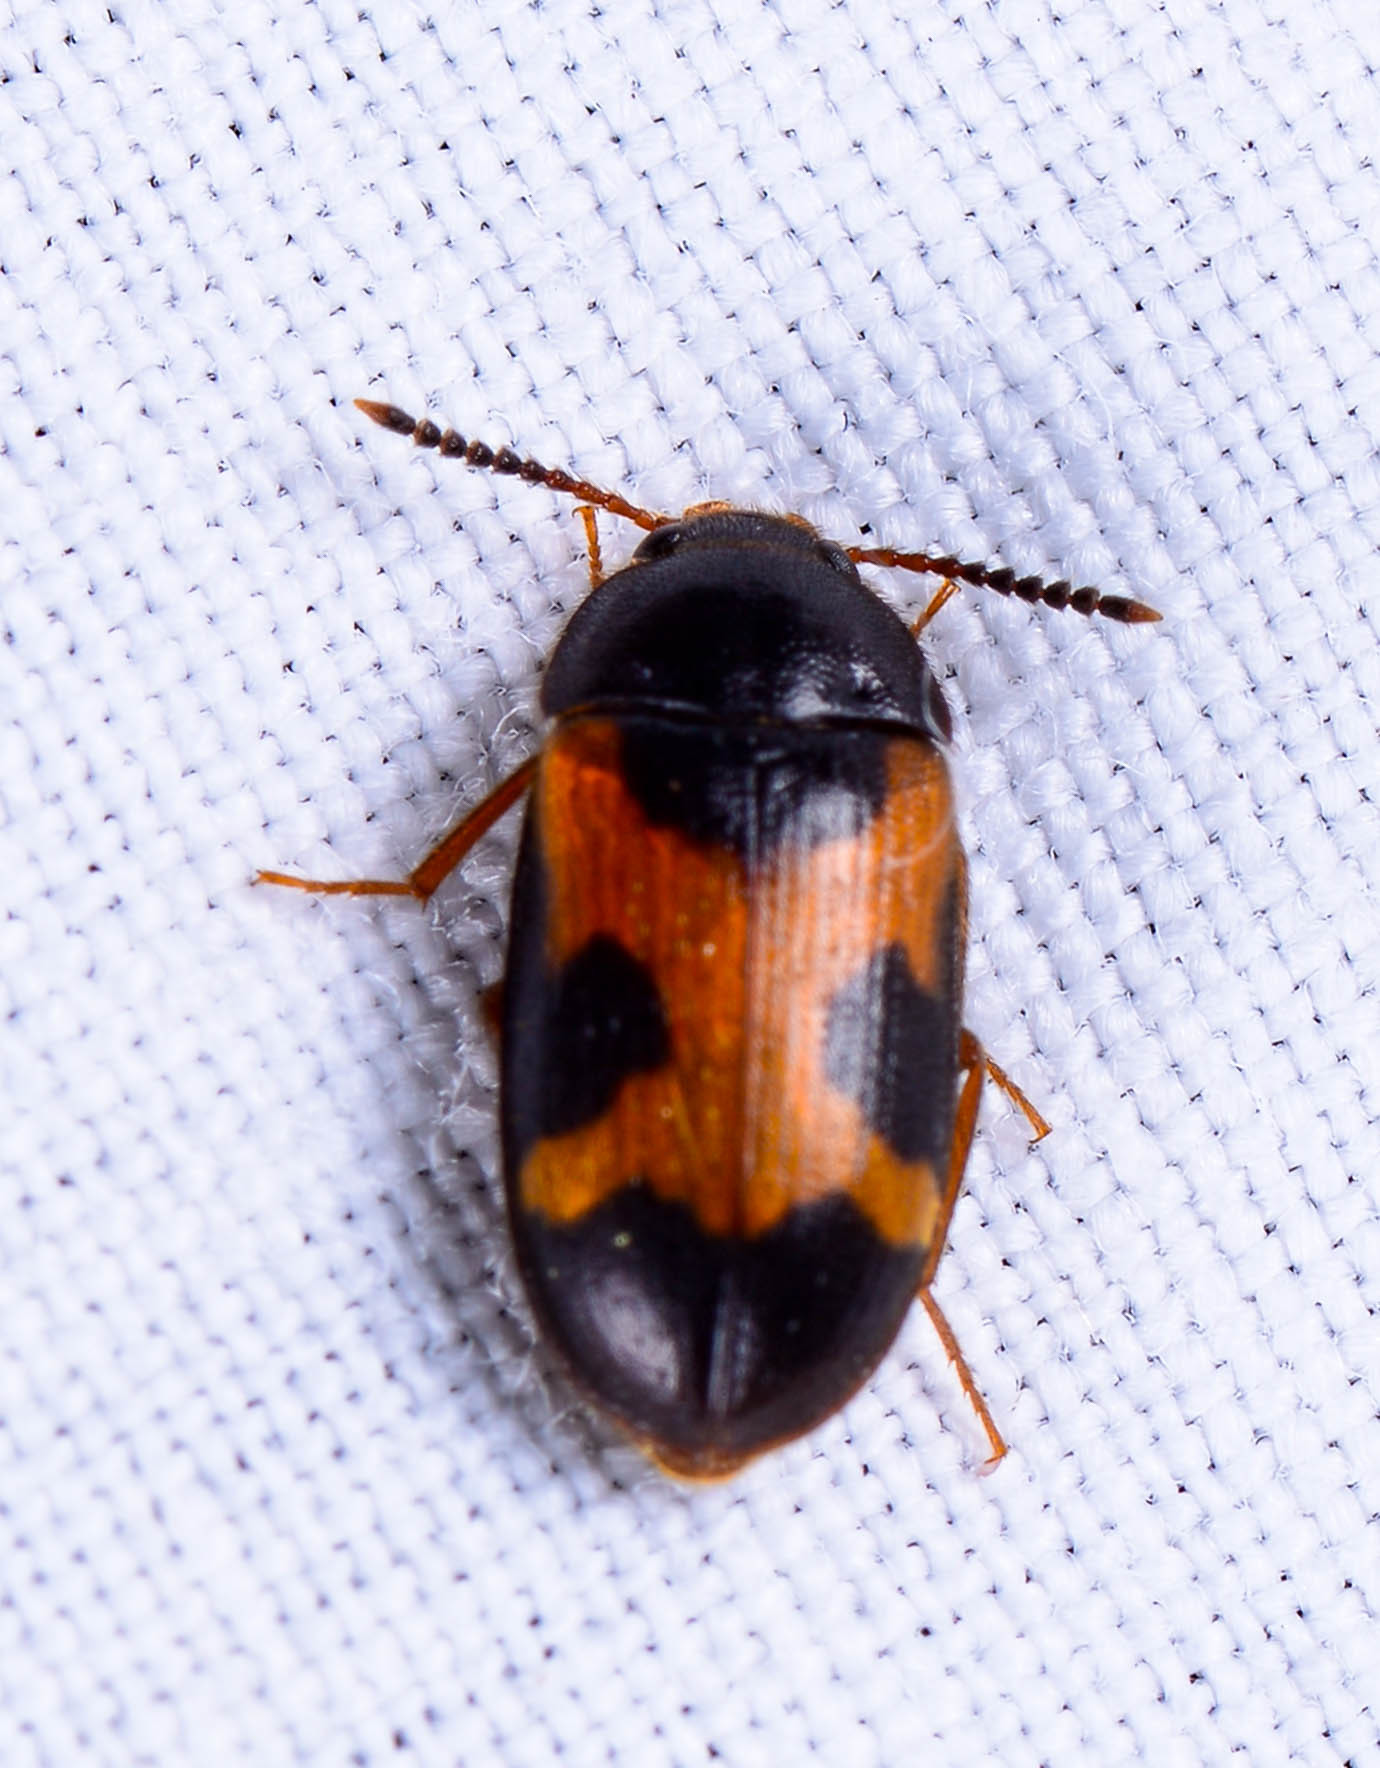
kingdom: Animalia
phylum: Arthropoda
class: Insecta
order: Coleoptera
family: Mycetophagidae
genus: Mycetophagus
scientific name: Mycetophagus punctatus
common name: Hairy fungus beetle
